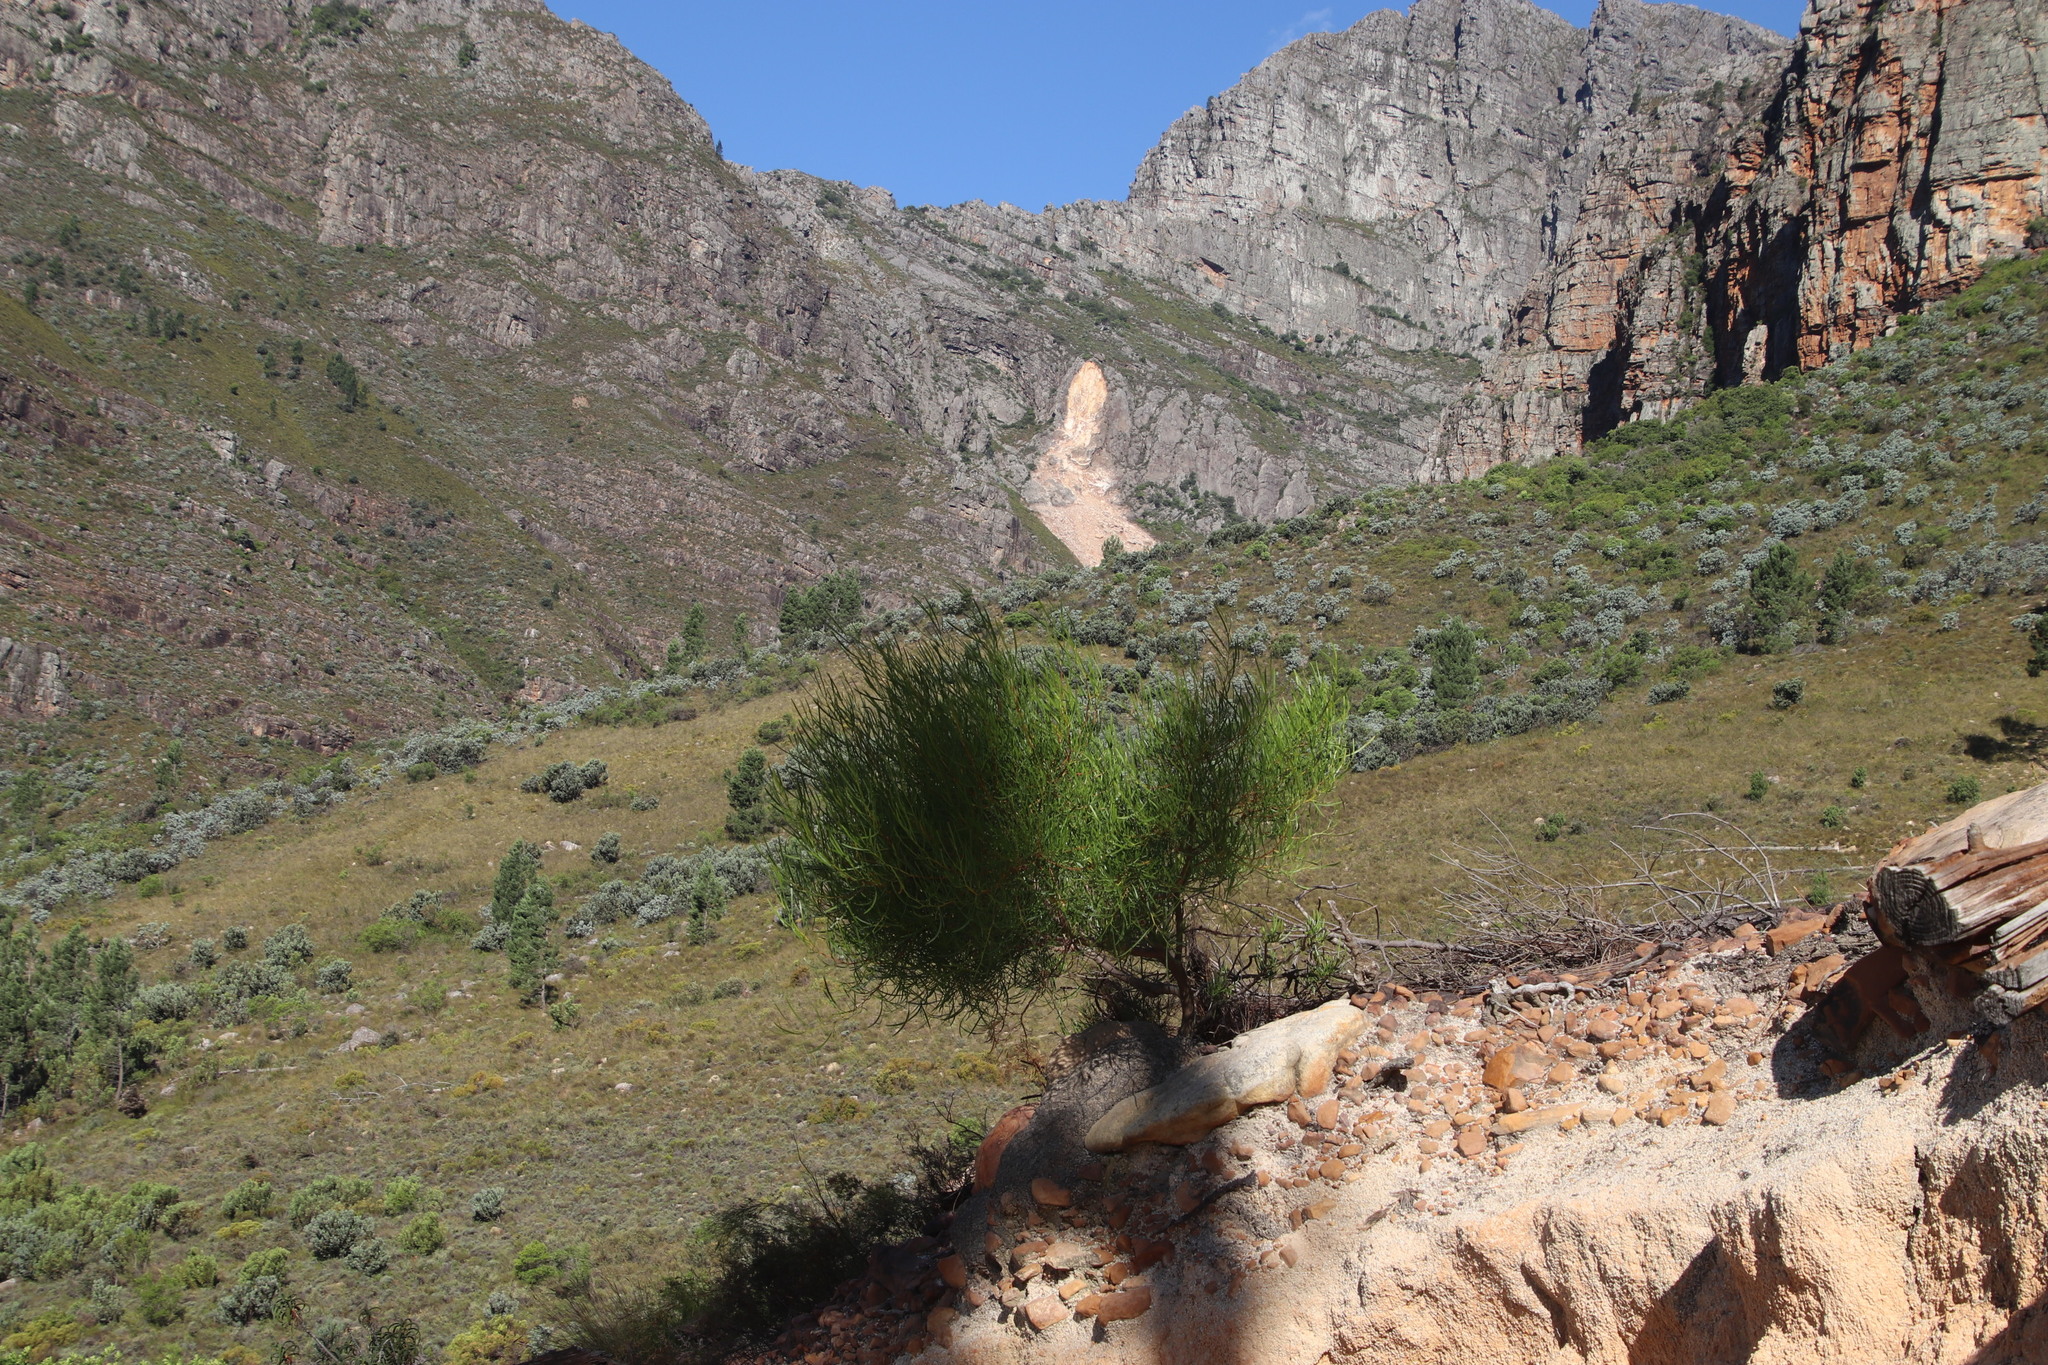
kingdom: Plantae
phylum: Tracheophyta
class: Magnoliopsida
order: Sapindales
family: Sapindaceae
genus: Dodonaea
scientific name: Dodonaea viscosa
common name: Hopbush
